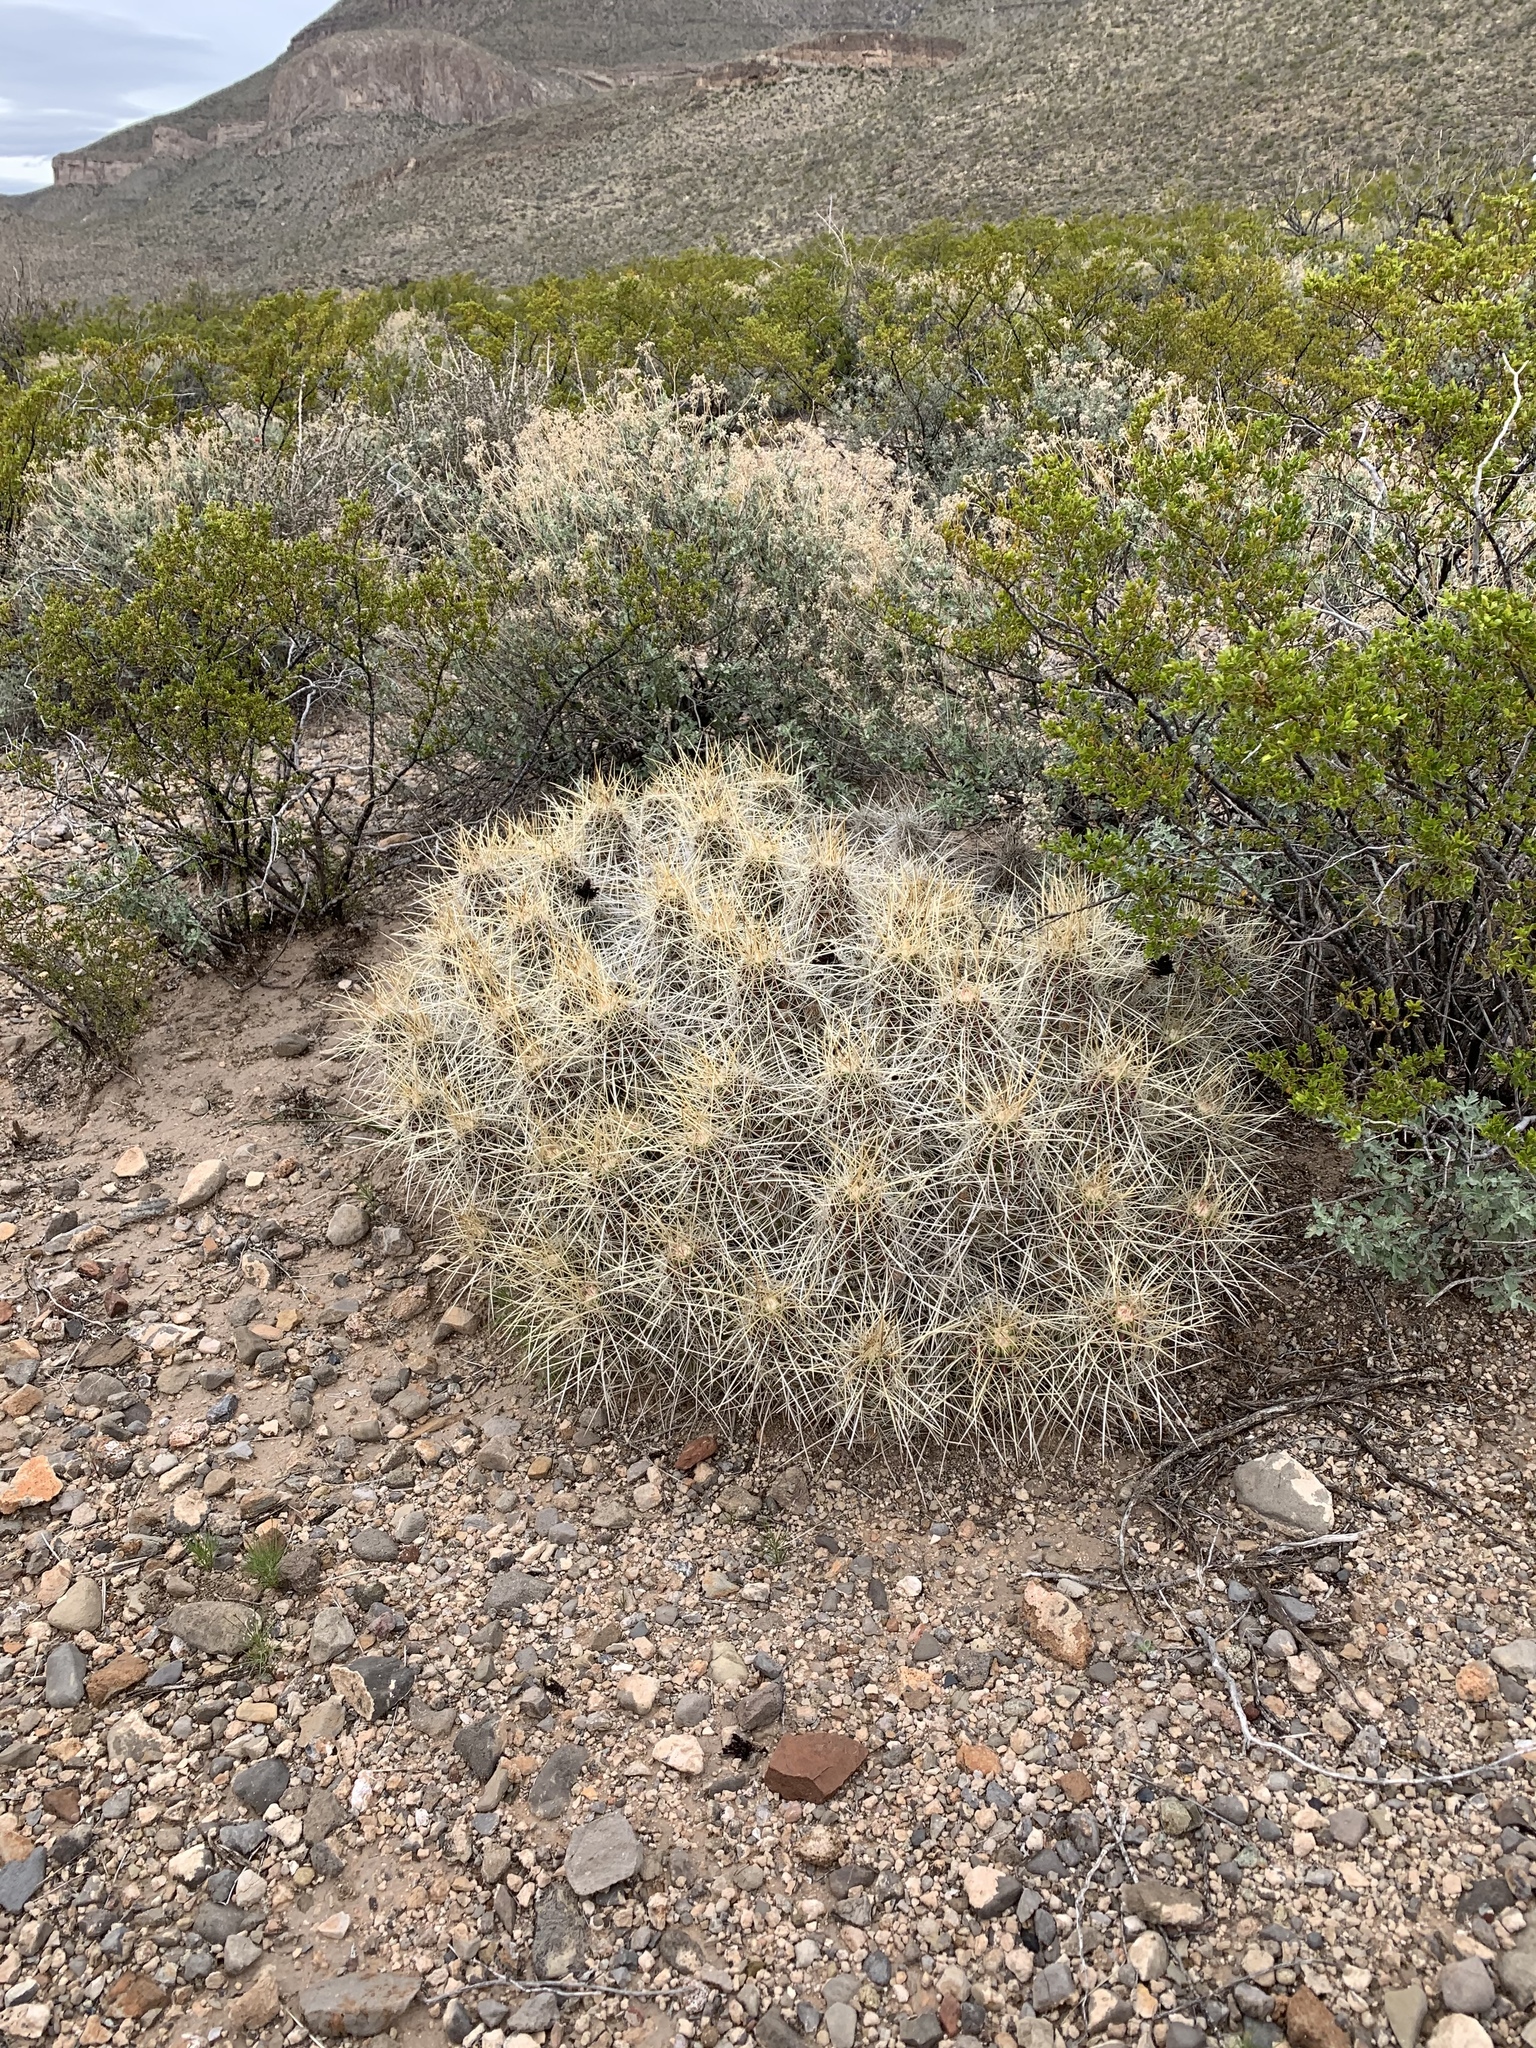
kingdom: Plantae
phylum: Tracheophyta
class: Magnoliopsida
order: Caryophyllales
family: Cactaceae
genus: Echinocereus
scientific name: Echinocereus stramineus
